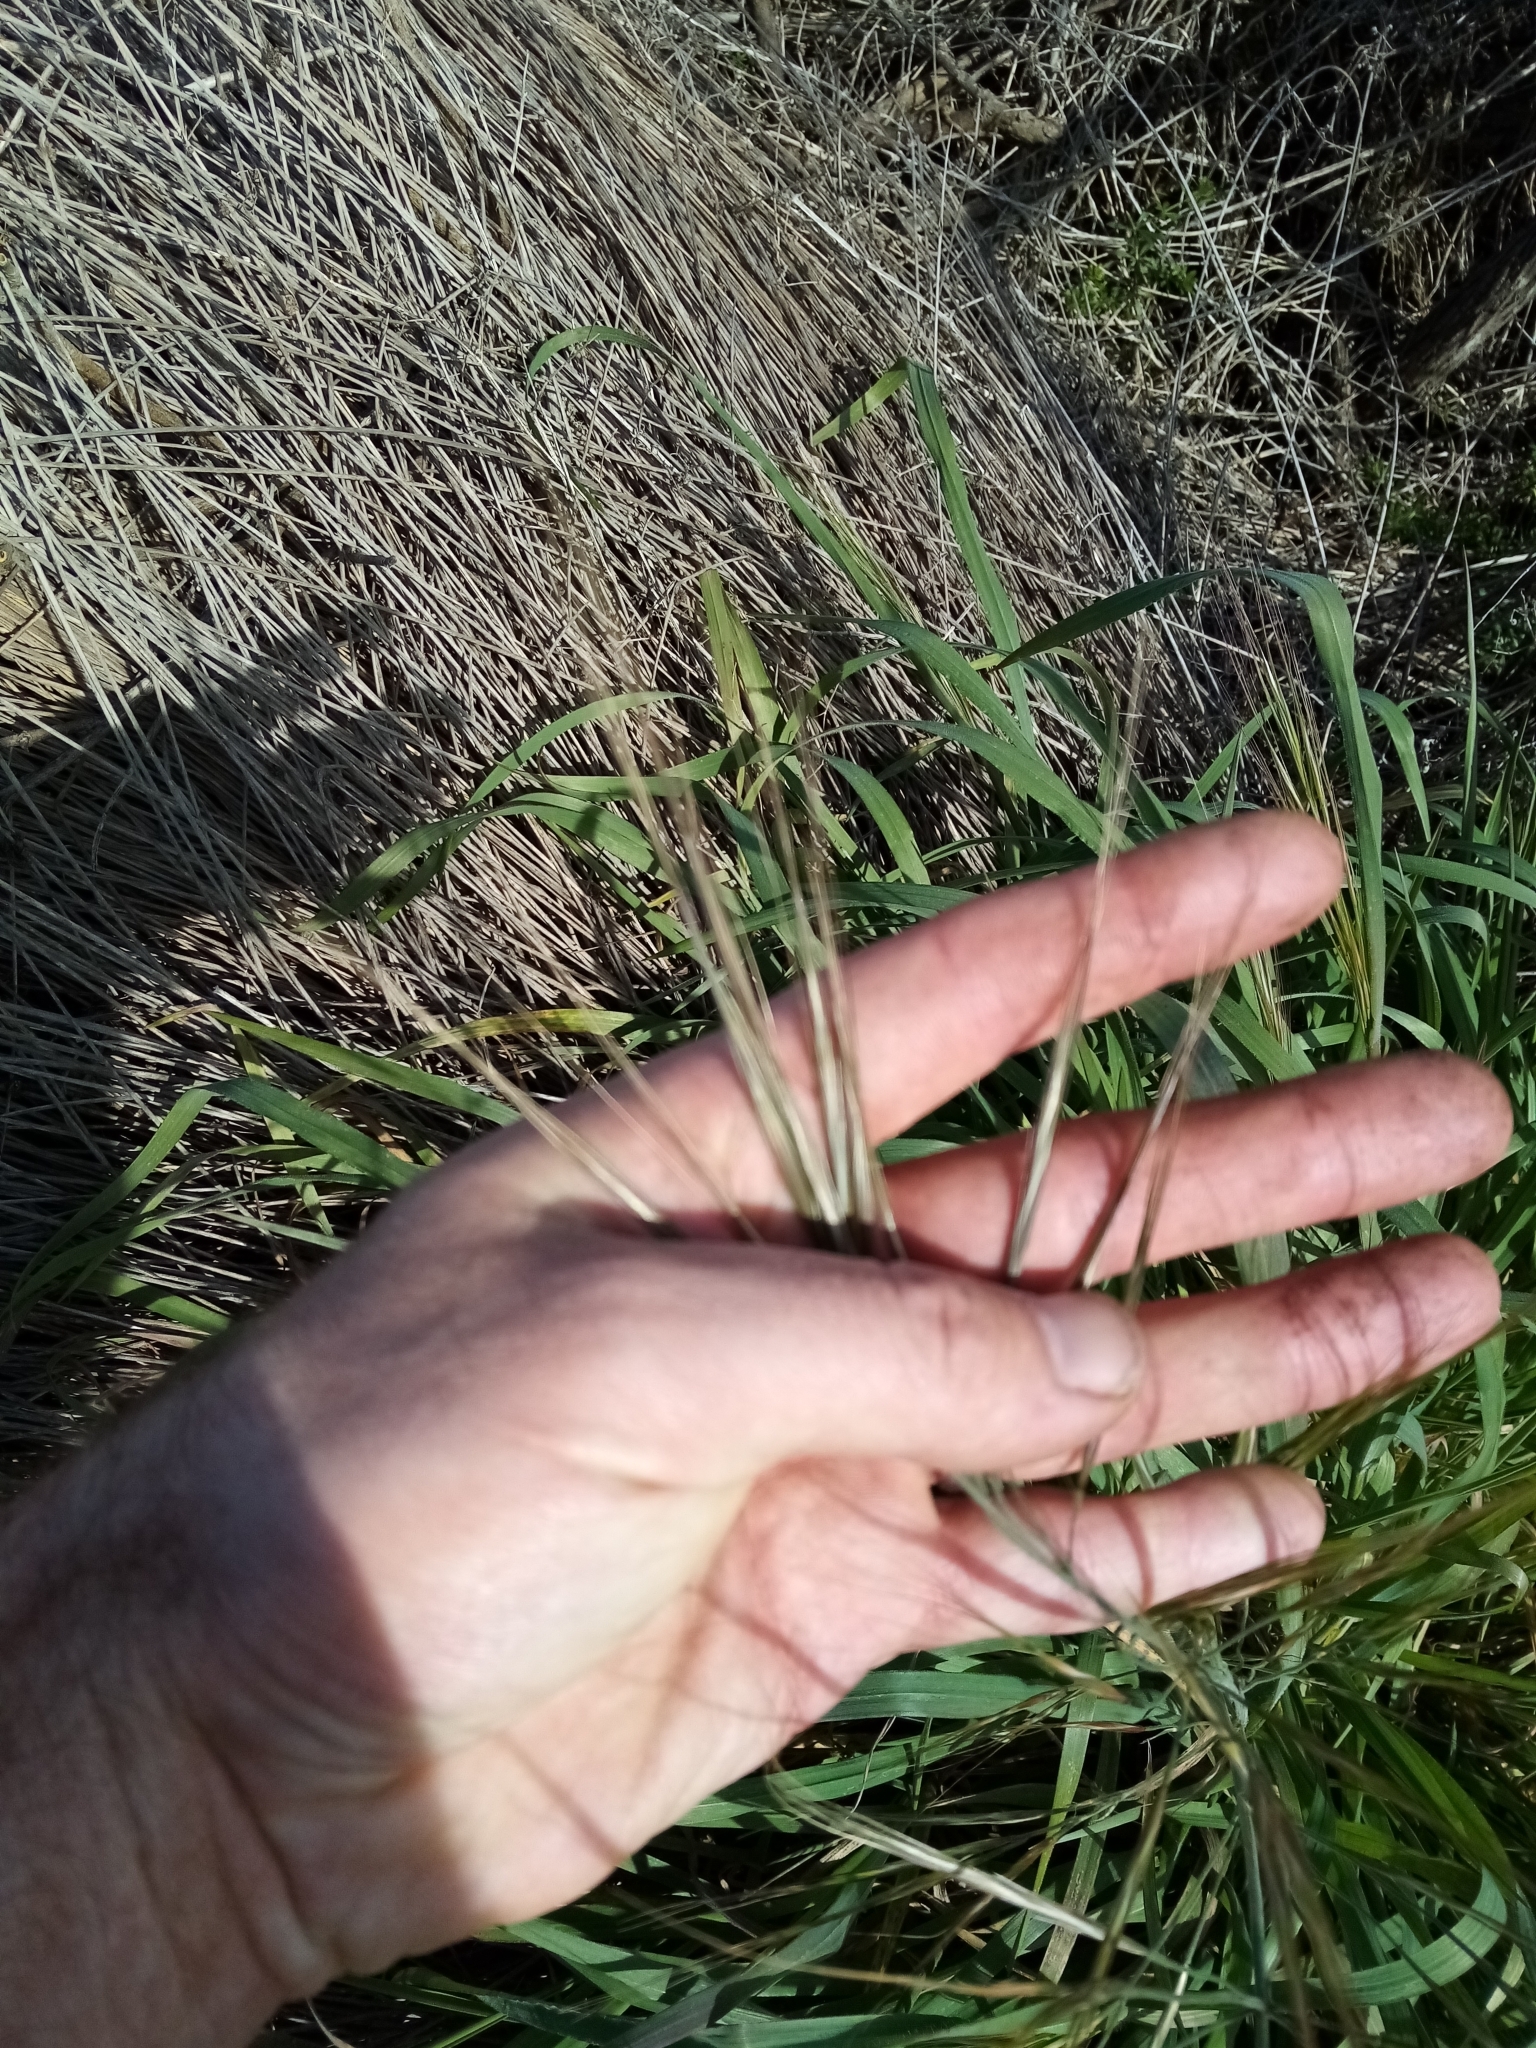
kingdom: Plantae
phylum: Tracheophyta
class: Liliopsida
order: Poales
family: Poaceae
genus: Bromus
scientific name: Bromus diandrus
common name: Ripgut brome
